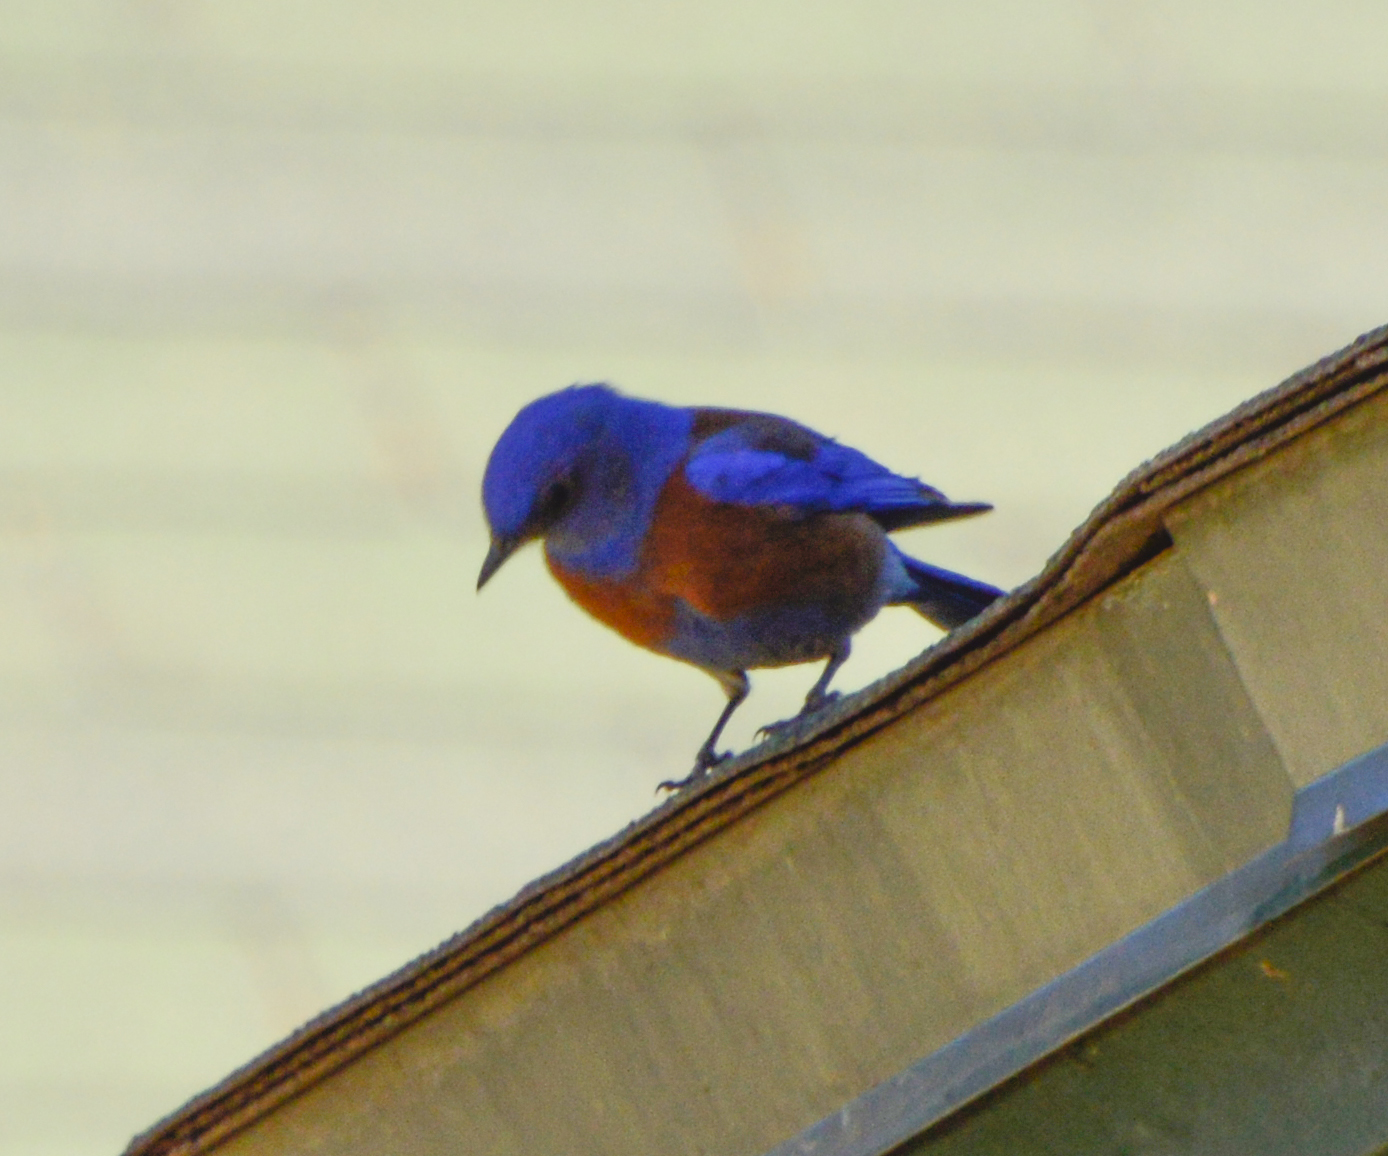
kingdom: Animalia
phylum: Chordata
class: Aves
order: Passeriformes
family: Turdidae
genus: Sialia
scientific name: Sialia mexicana
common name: Western bluebird
